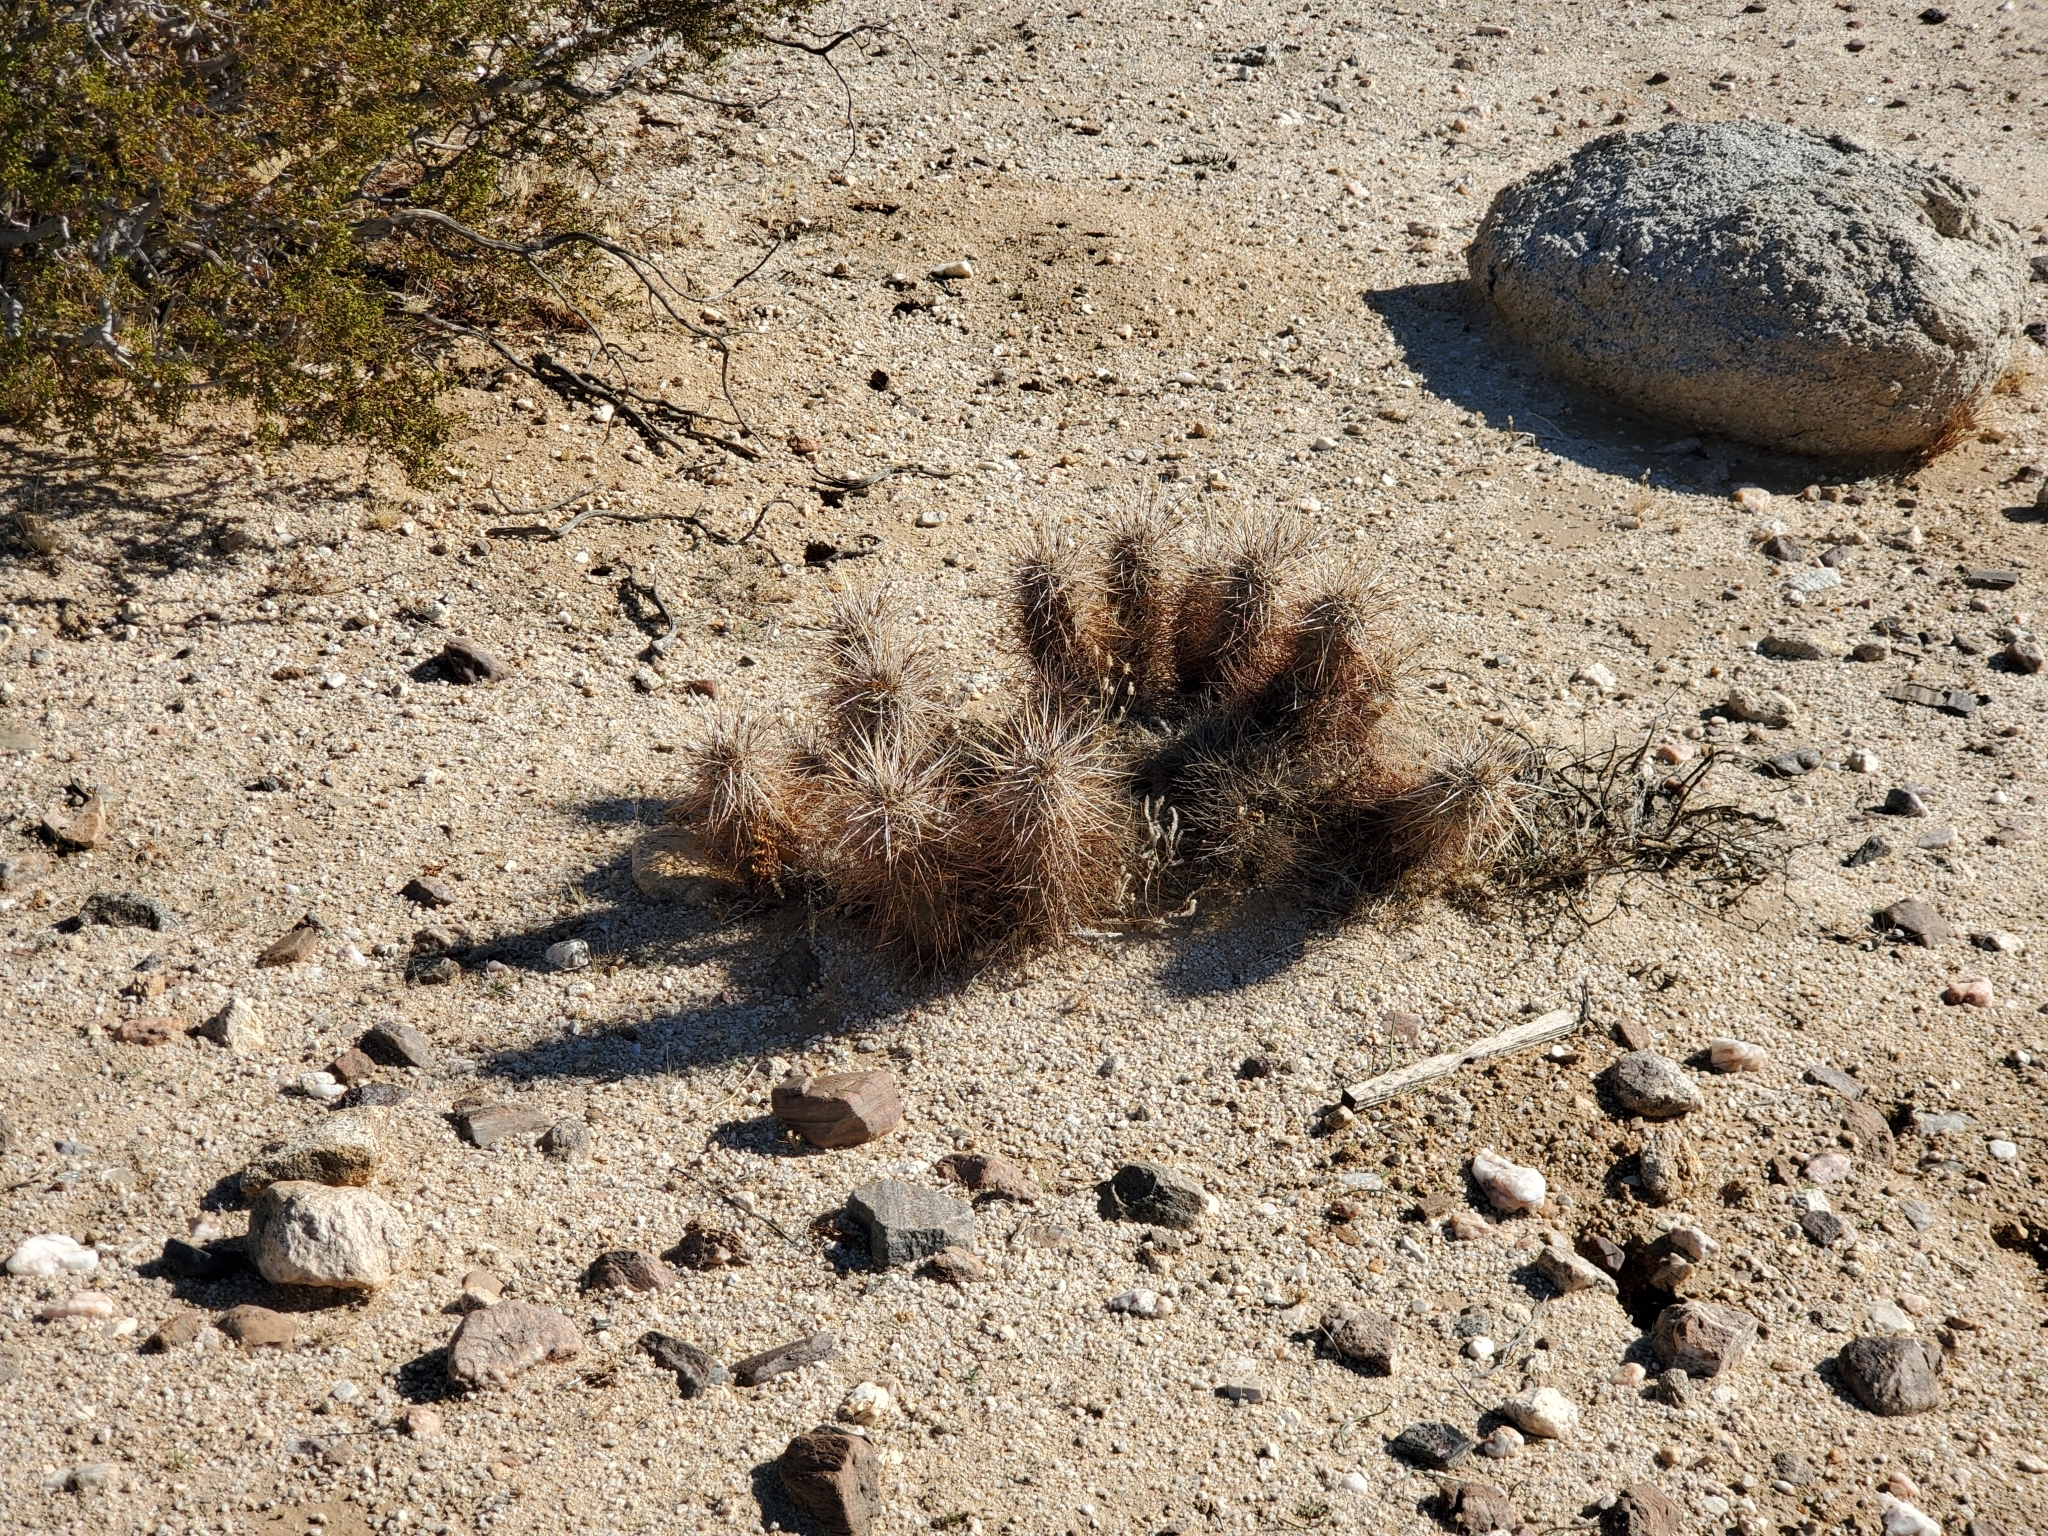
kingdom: Plantae
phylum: Tracheophyta
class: Magnoliopsida
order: Caryophyllales
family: Cactaceae
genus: Echinocereus
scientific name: Echinocereus engelmannii
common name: Engelmann's hedgehog cactus
